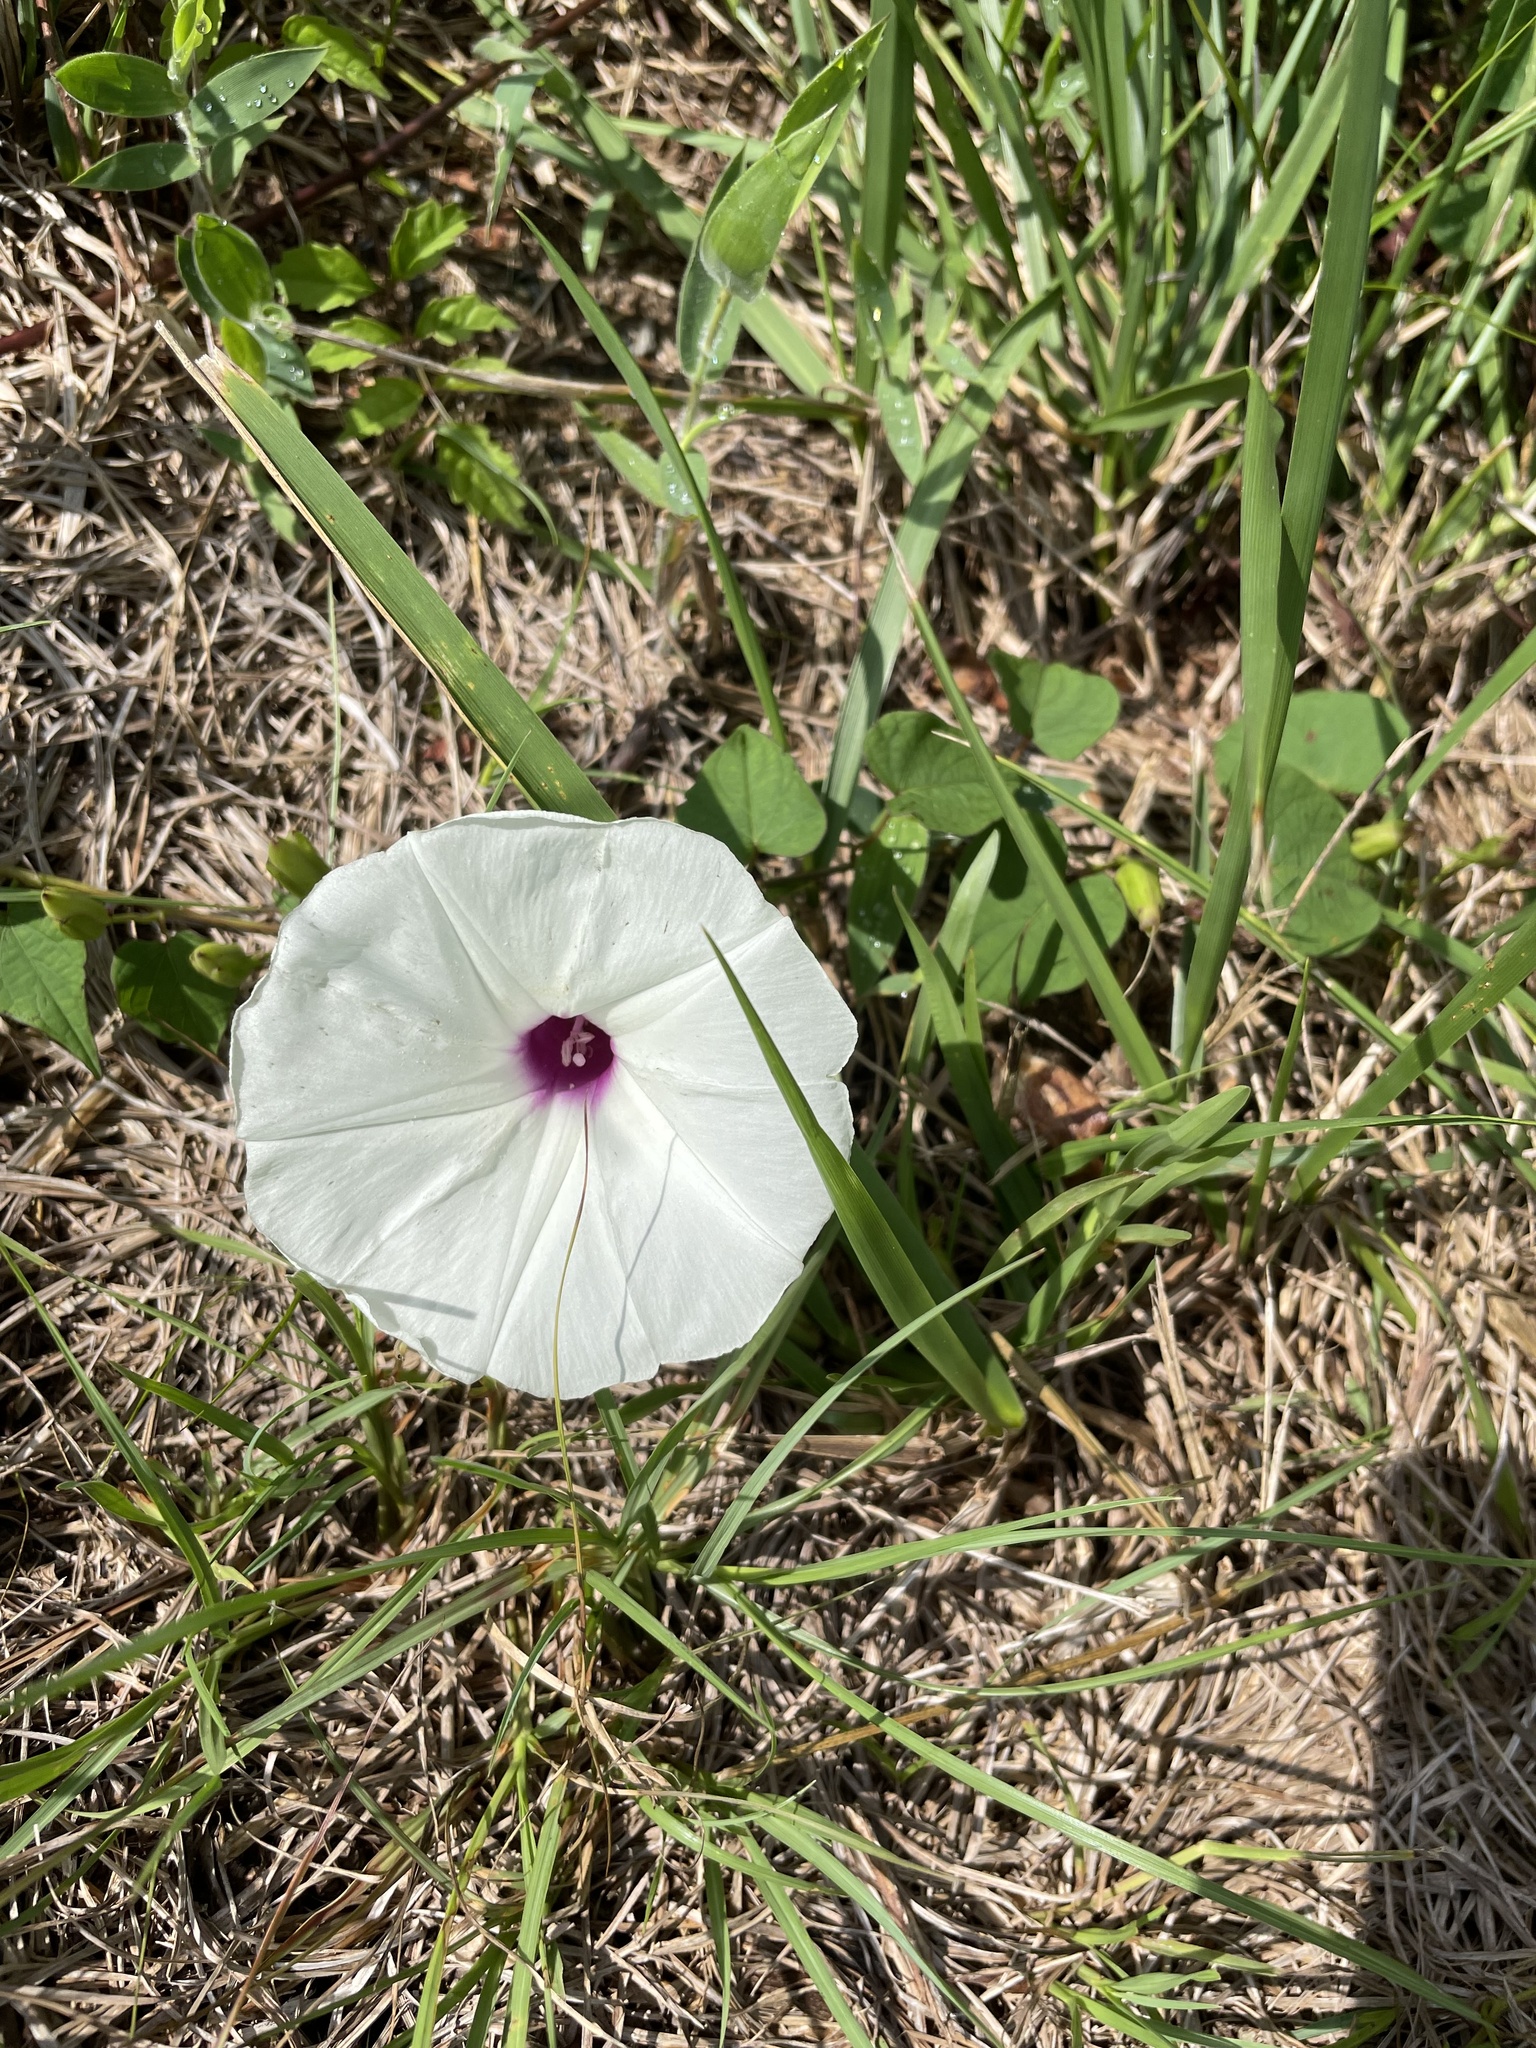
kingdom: Plantae
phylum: Tracheophyta
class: Magnoliopsida
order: Solanales
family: Convolvulaceae
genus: Ipomoea
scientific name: Ipomoea pandurata
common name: Man-of-the-earth
